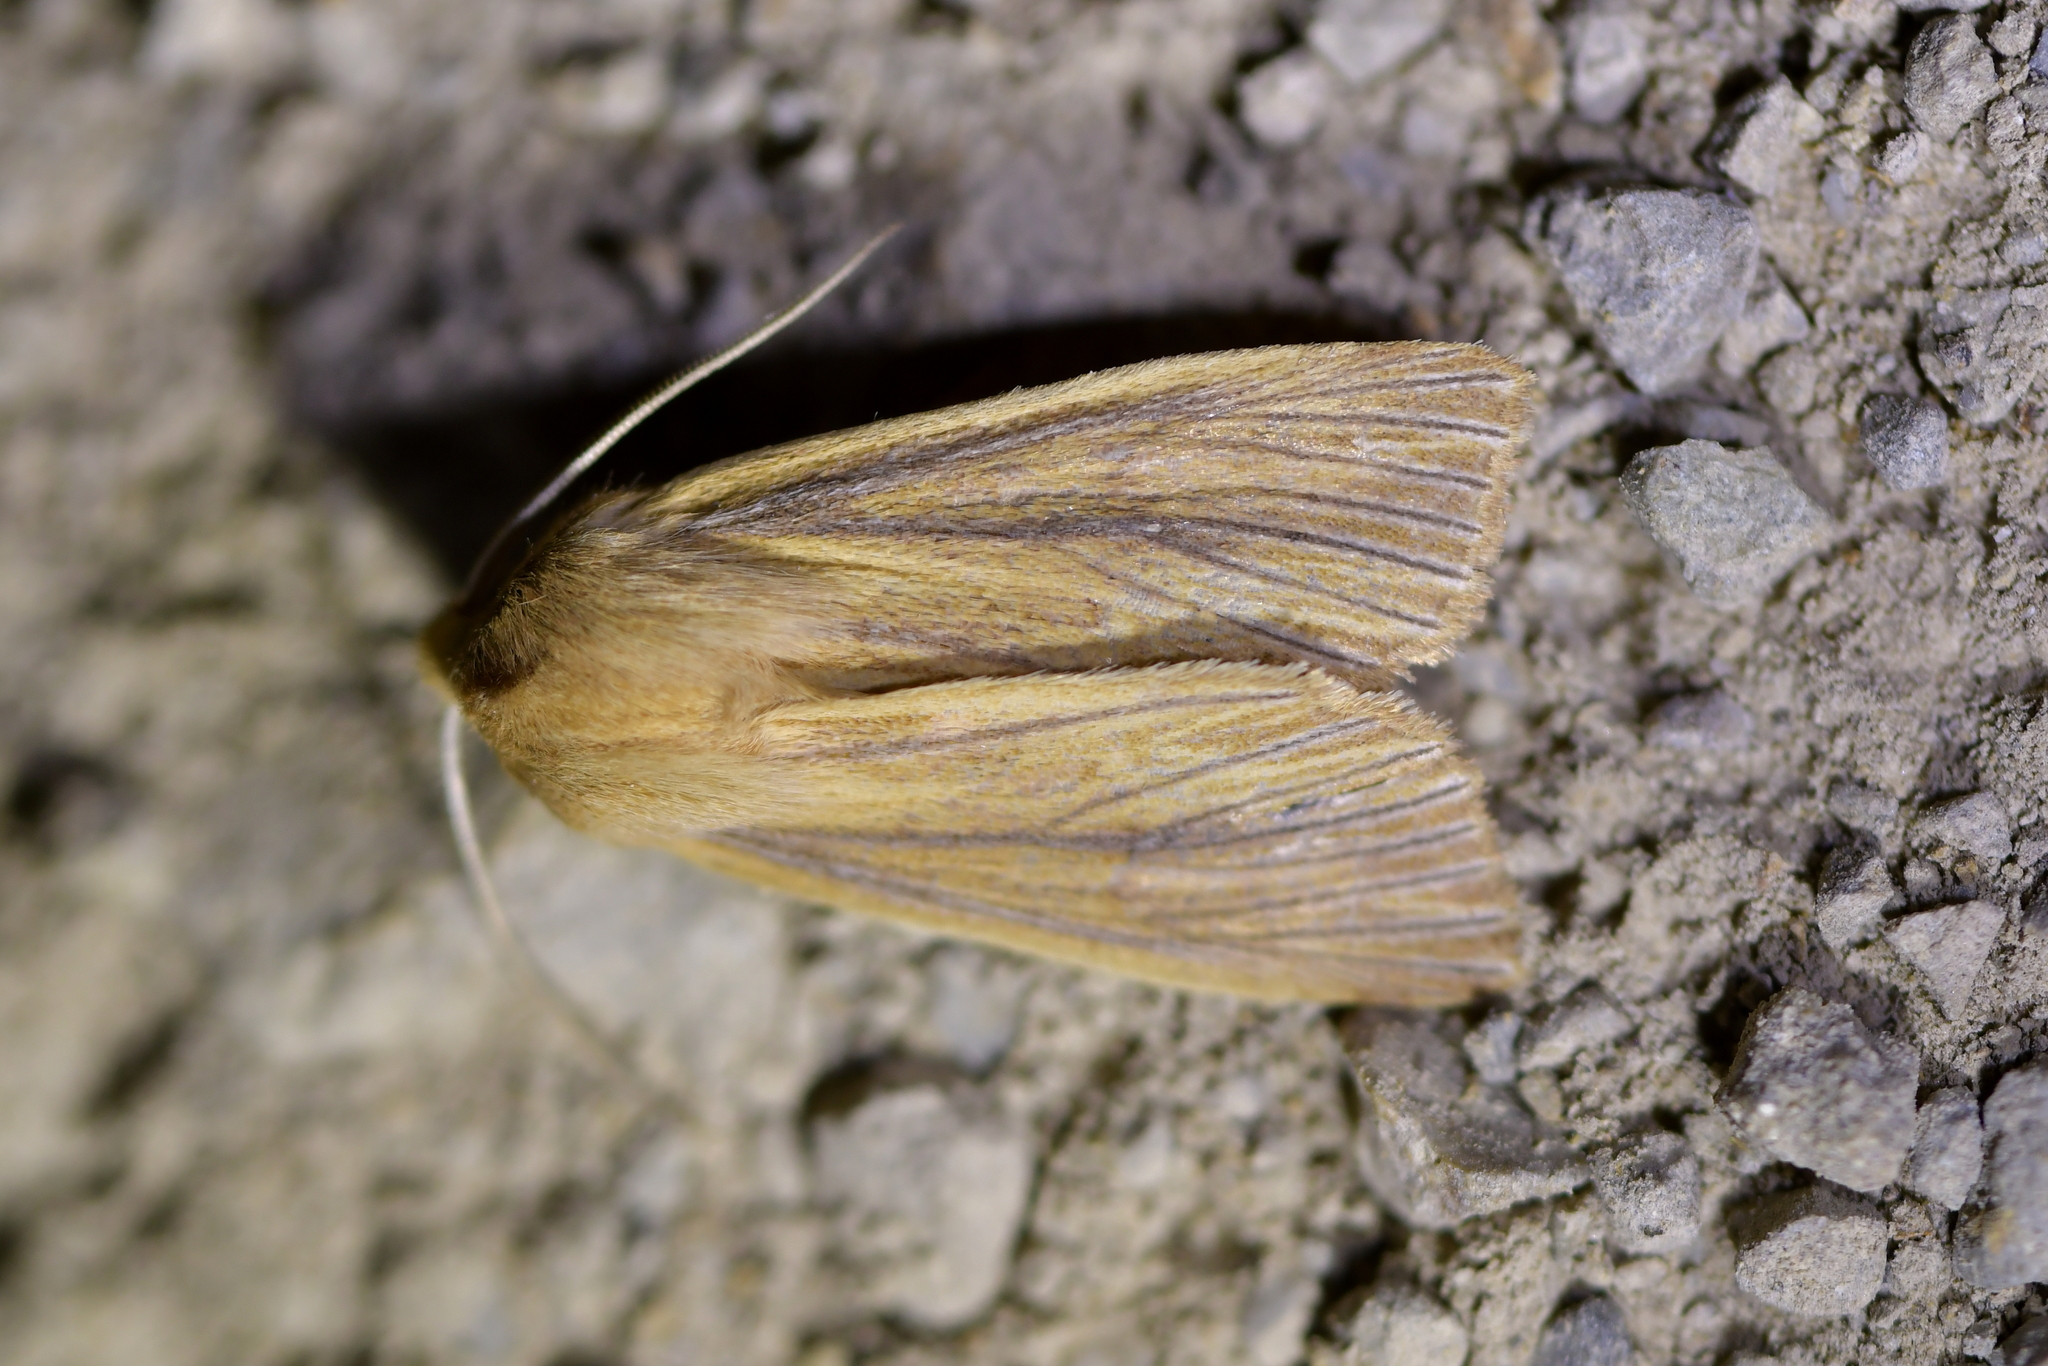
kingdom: Animalia
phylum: Arthropoda
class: Insecta
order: Lepidoptera
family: Noctuidae
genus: Ichneutica
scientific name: Ichneutica arotis
